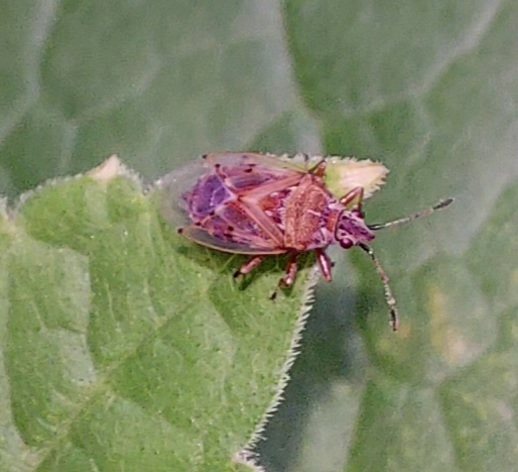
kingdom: Animalia
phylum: Arthropoda
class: Insecta
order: Hemiptera
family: Lygaeidae
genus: Kleidocerys
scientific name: Kleidocerys resedae
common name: Birch catkin bug
